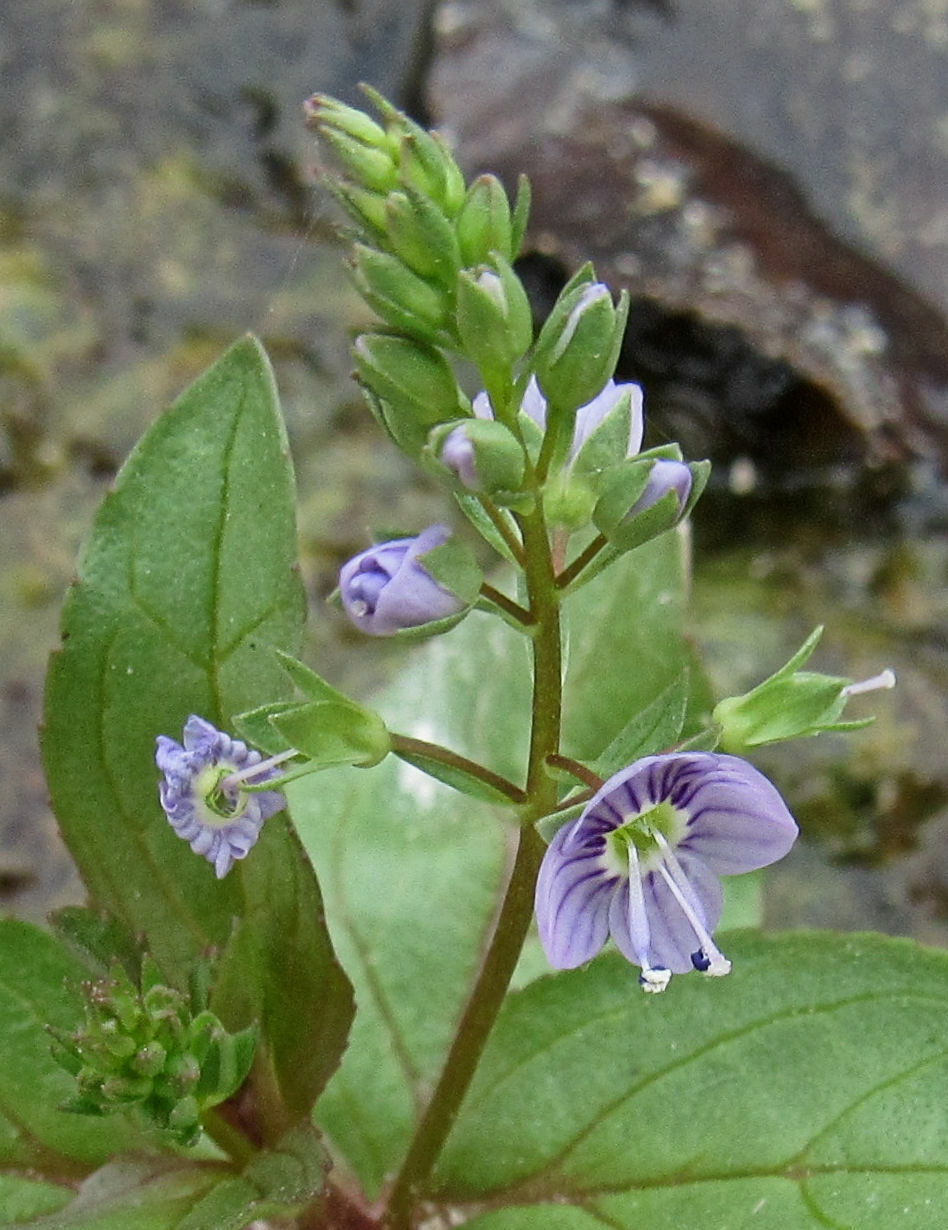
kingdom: Plantae
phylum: Tracheophyta
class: Magnoliopsida
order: Lamiales
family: Plantaginaceae
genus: Veronica
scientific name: Veronica anagallis-aquatica
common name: Water speedwell
